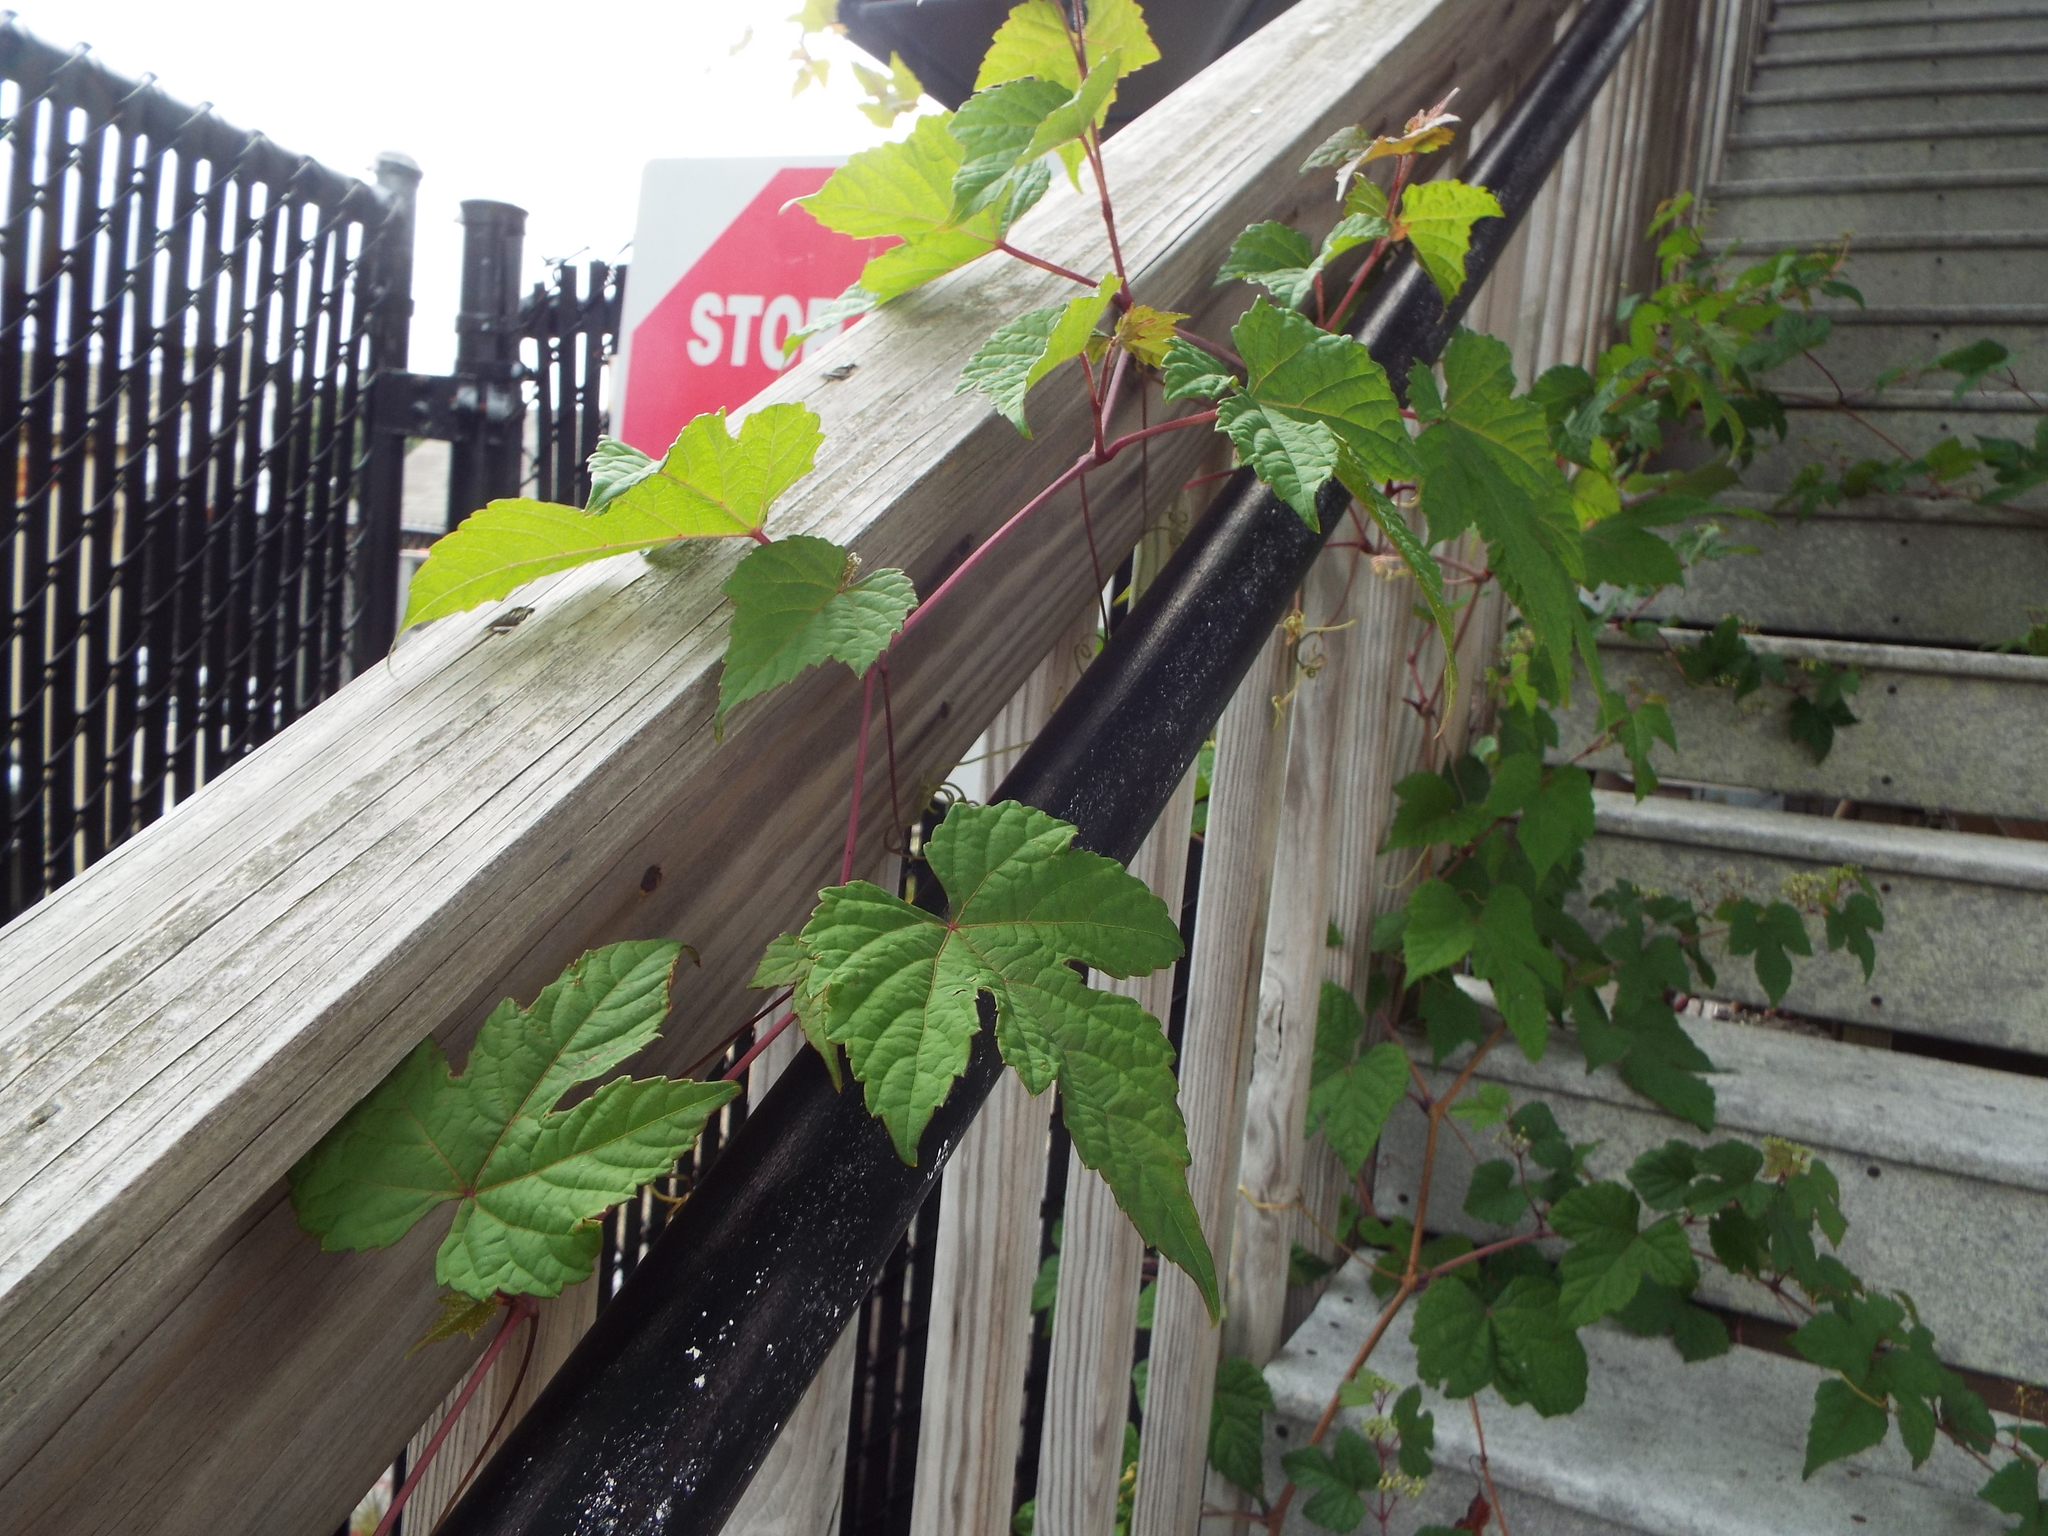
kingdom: Plantae
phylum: Tracheophyta
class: Magnoliopsida
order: Vitales
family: Vitaceae
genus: Ampelopsis
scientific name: Ampelopsis glandulosa
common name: Amur peppervine
